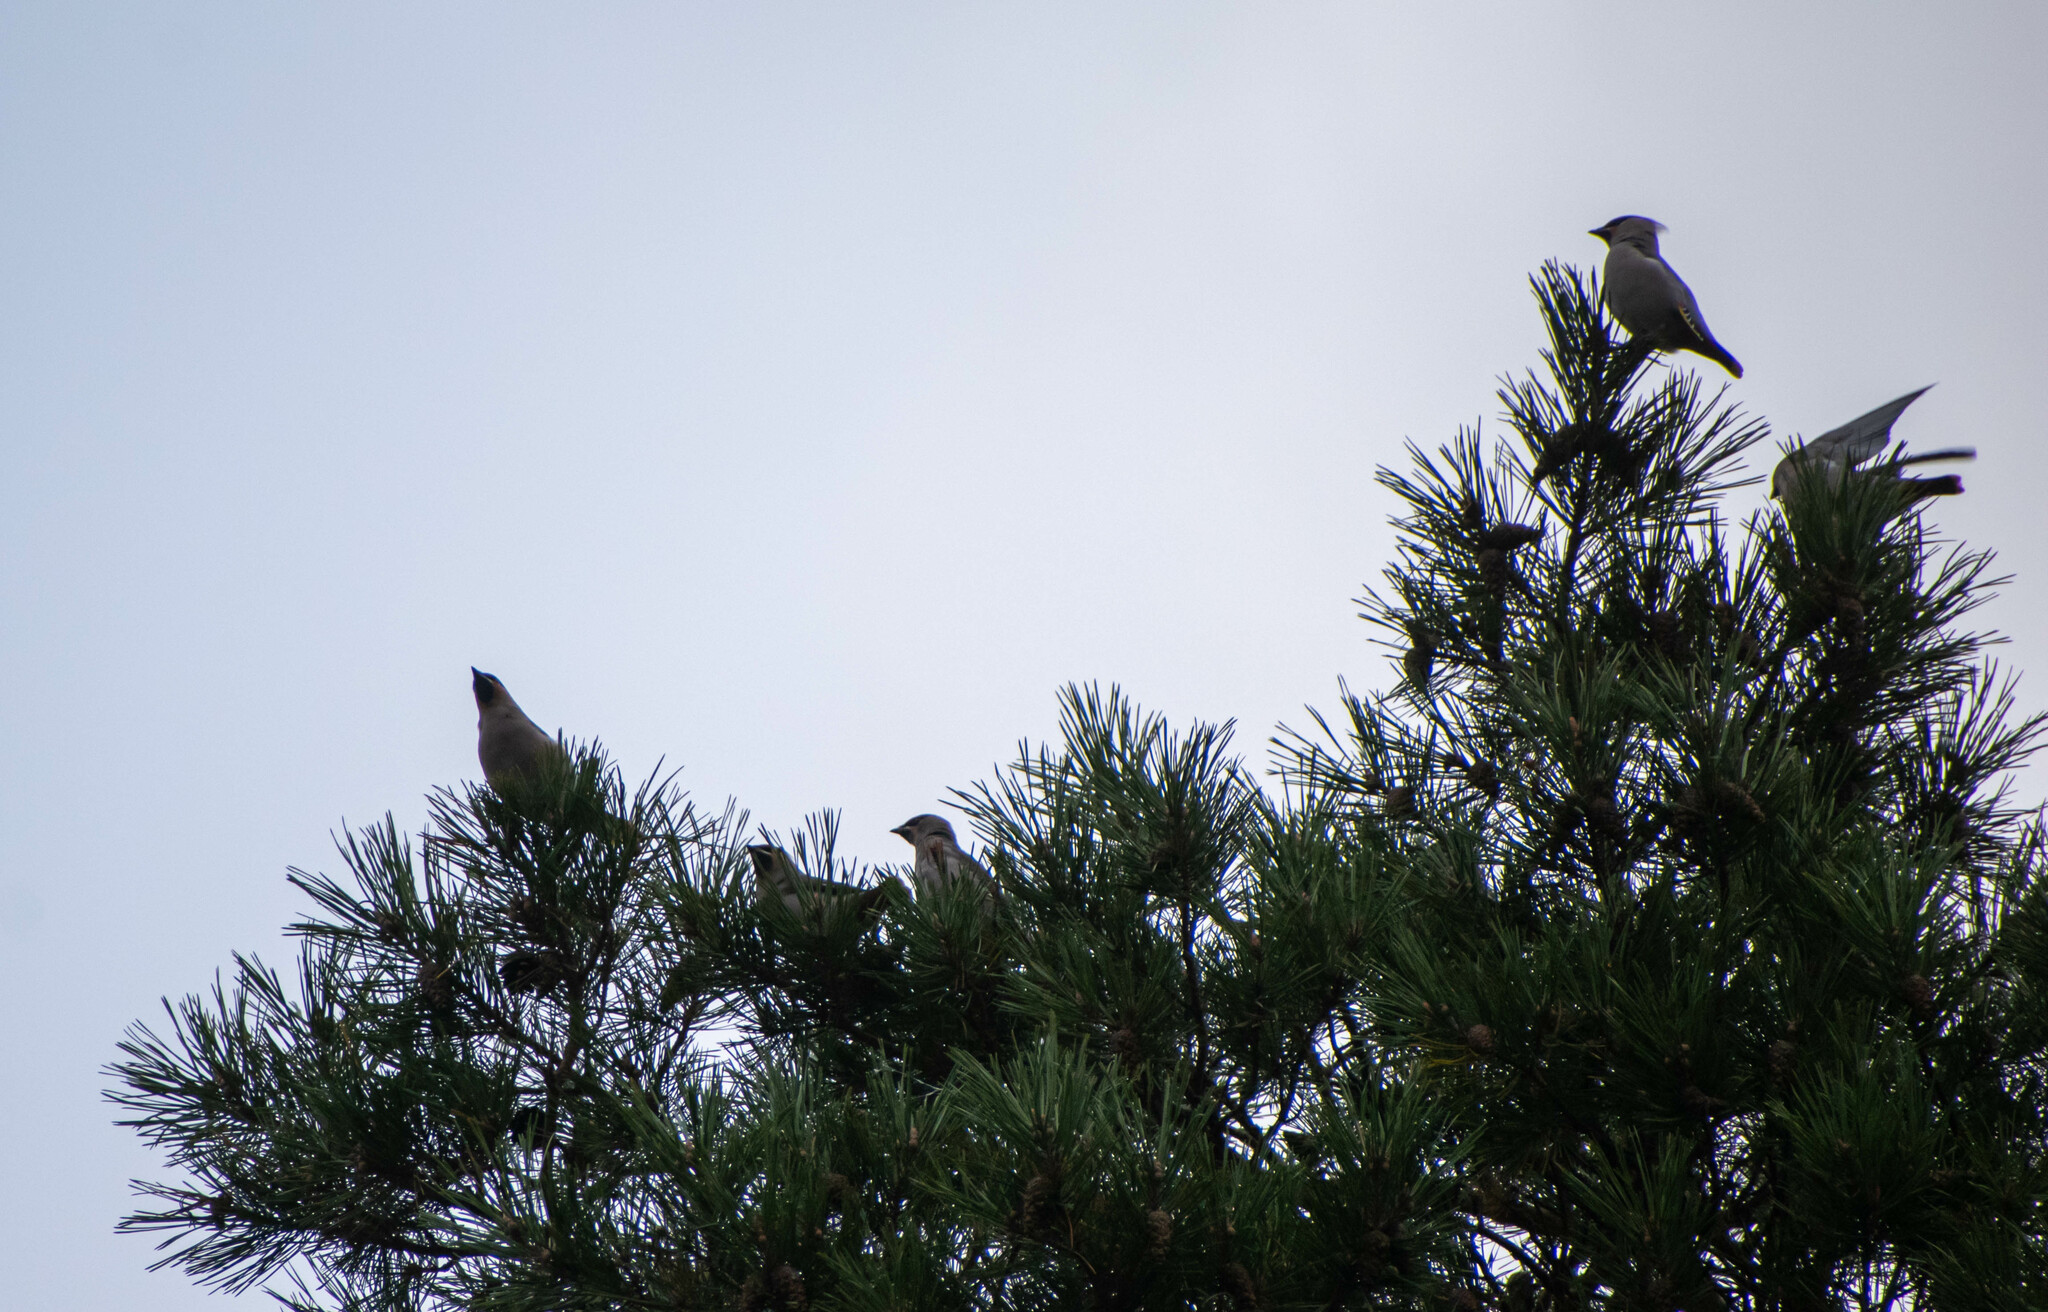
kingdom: Animalia
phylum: Chordata
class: Aves
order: Passeriformes
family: Bombycillidae
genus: Bombycilla
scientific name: Bombycilla garrulus
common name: Bohemian waxwing
